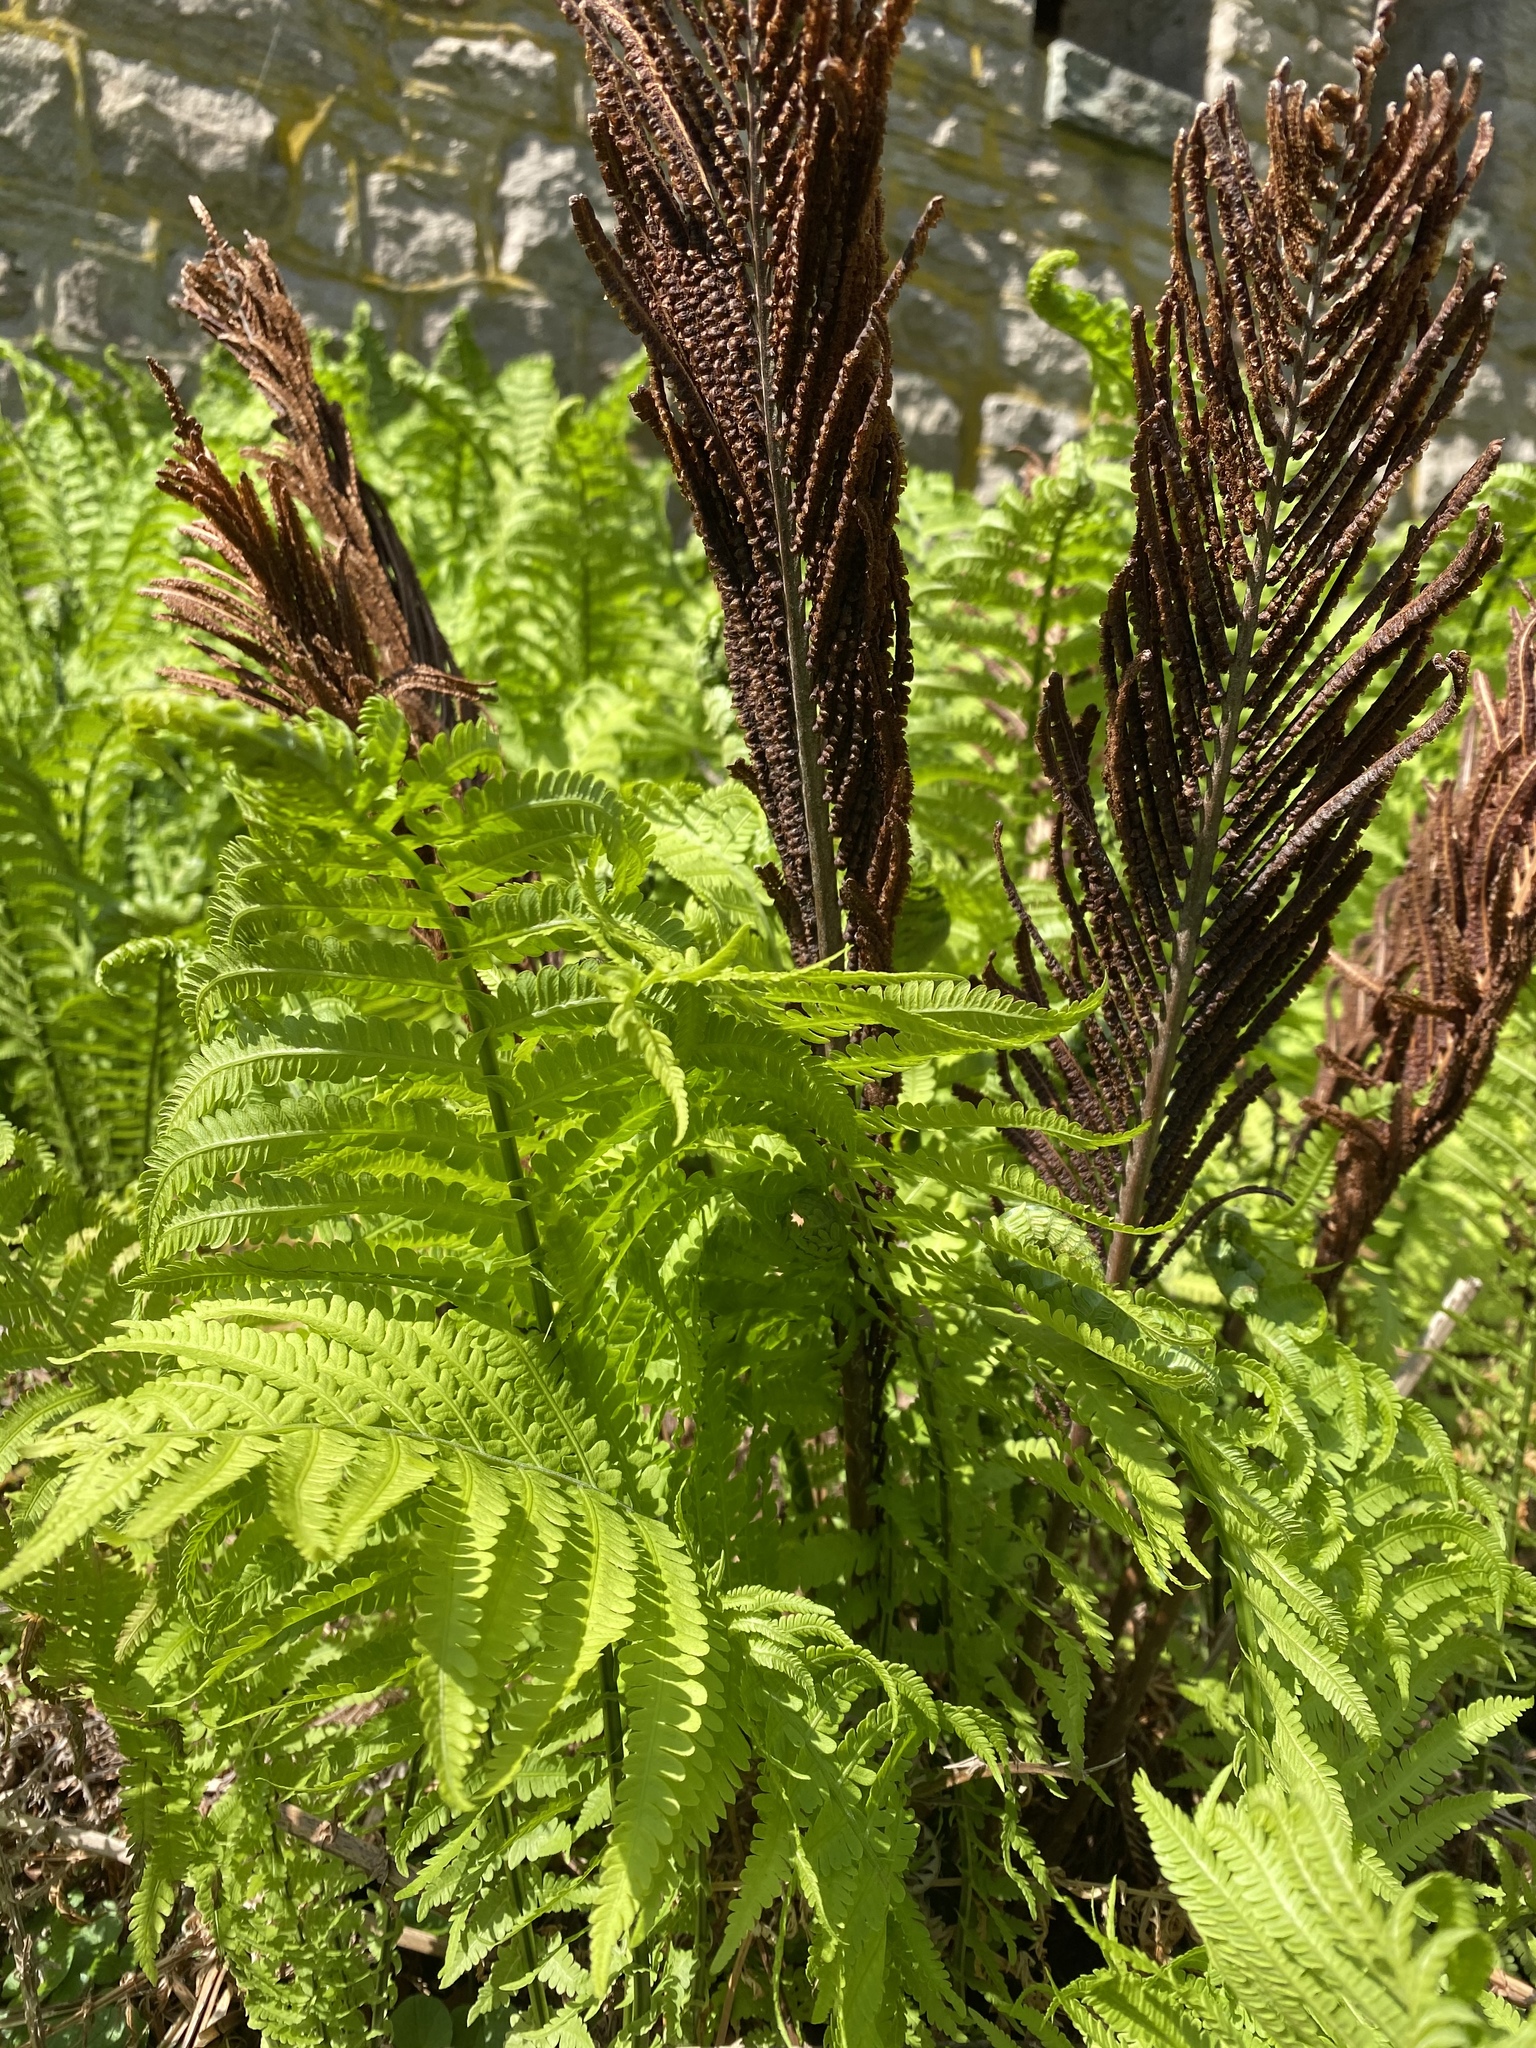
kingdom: Plantae
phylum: Tracheophyta
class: Polypodiopsida
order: Polypodiales
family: Onocleaceae
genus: Matteuccia
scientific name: Matteuccia struthiopteris
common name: Ostrich fern
